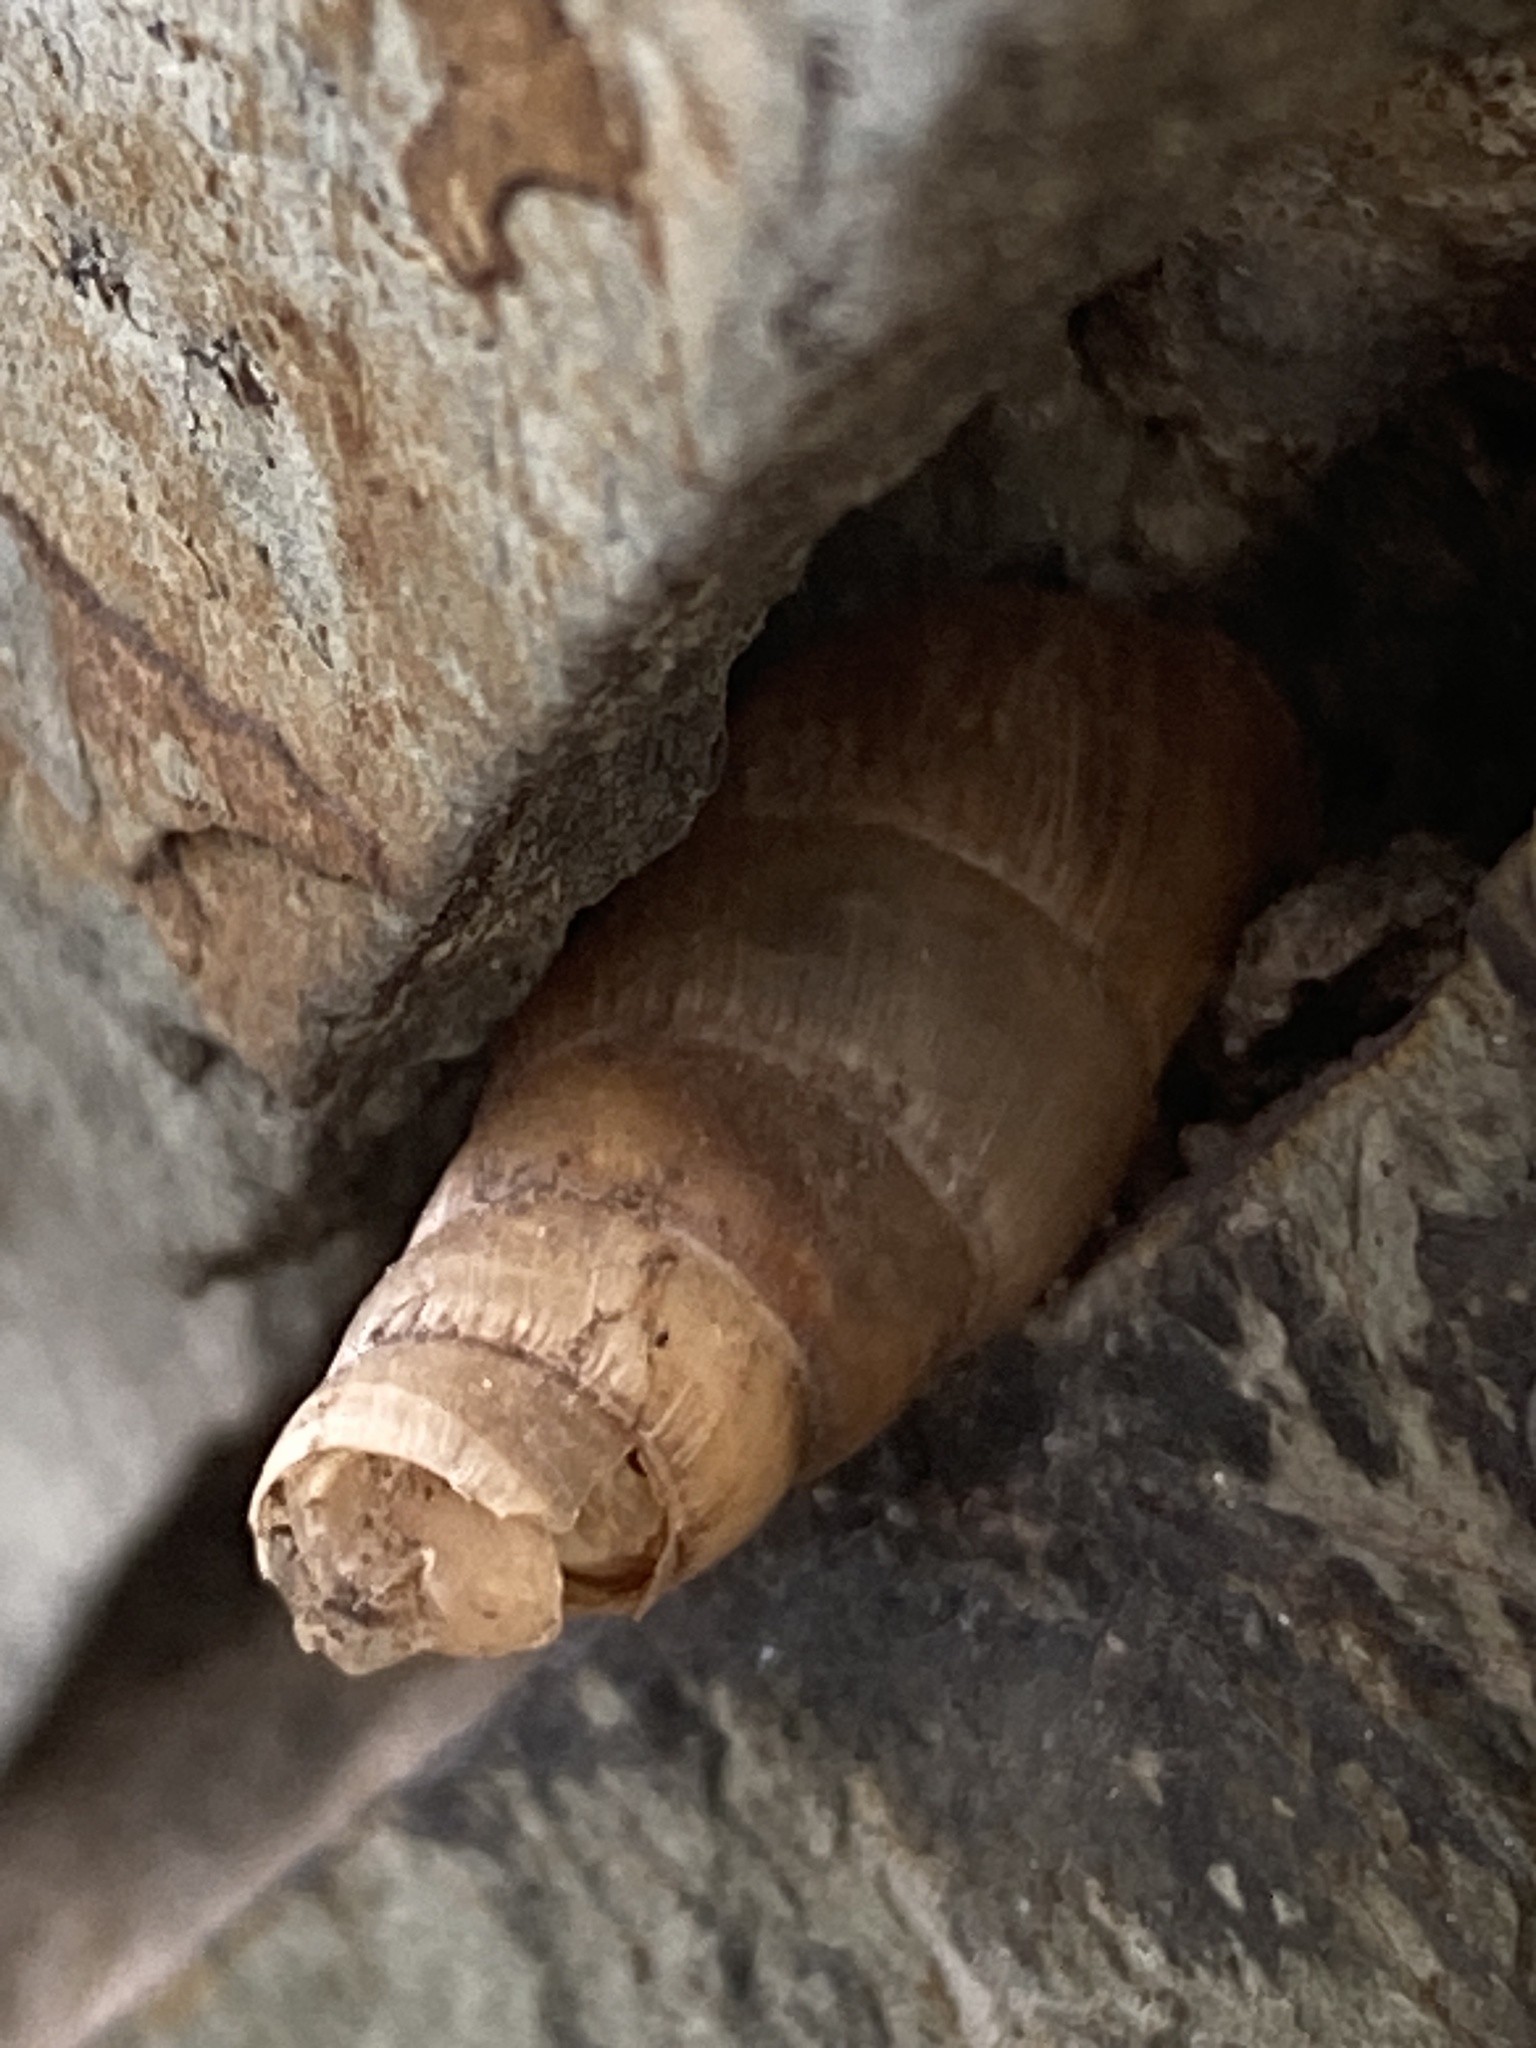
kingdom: Animalia
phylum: Mollusca
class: Gastropoda
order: Stylommatophora
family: Achatinidae
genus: Rumina
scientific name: Rumina decollata
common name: Decollate snail
